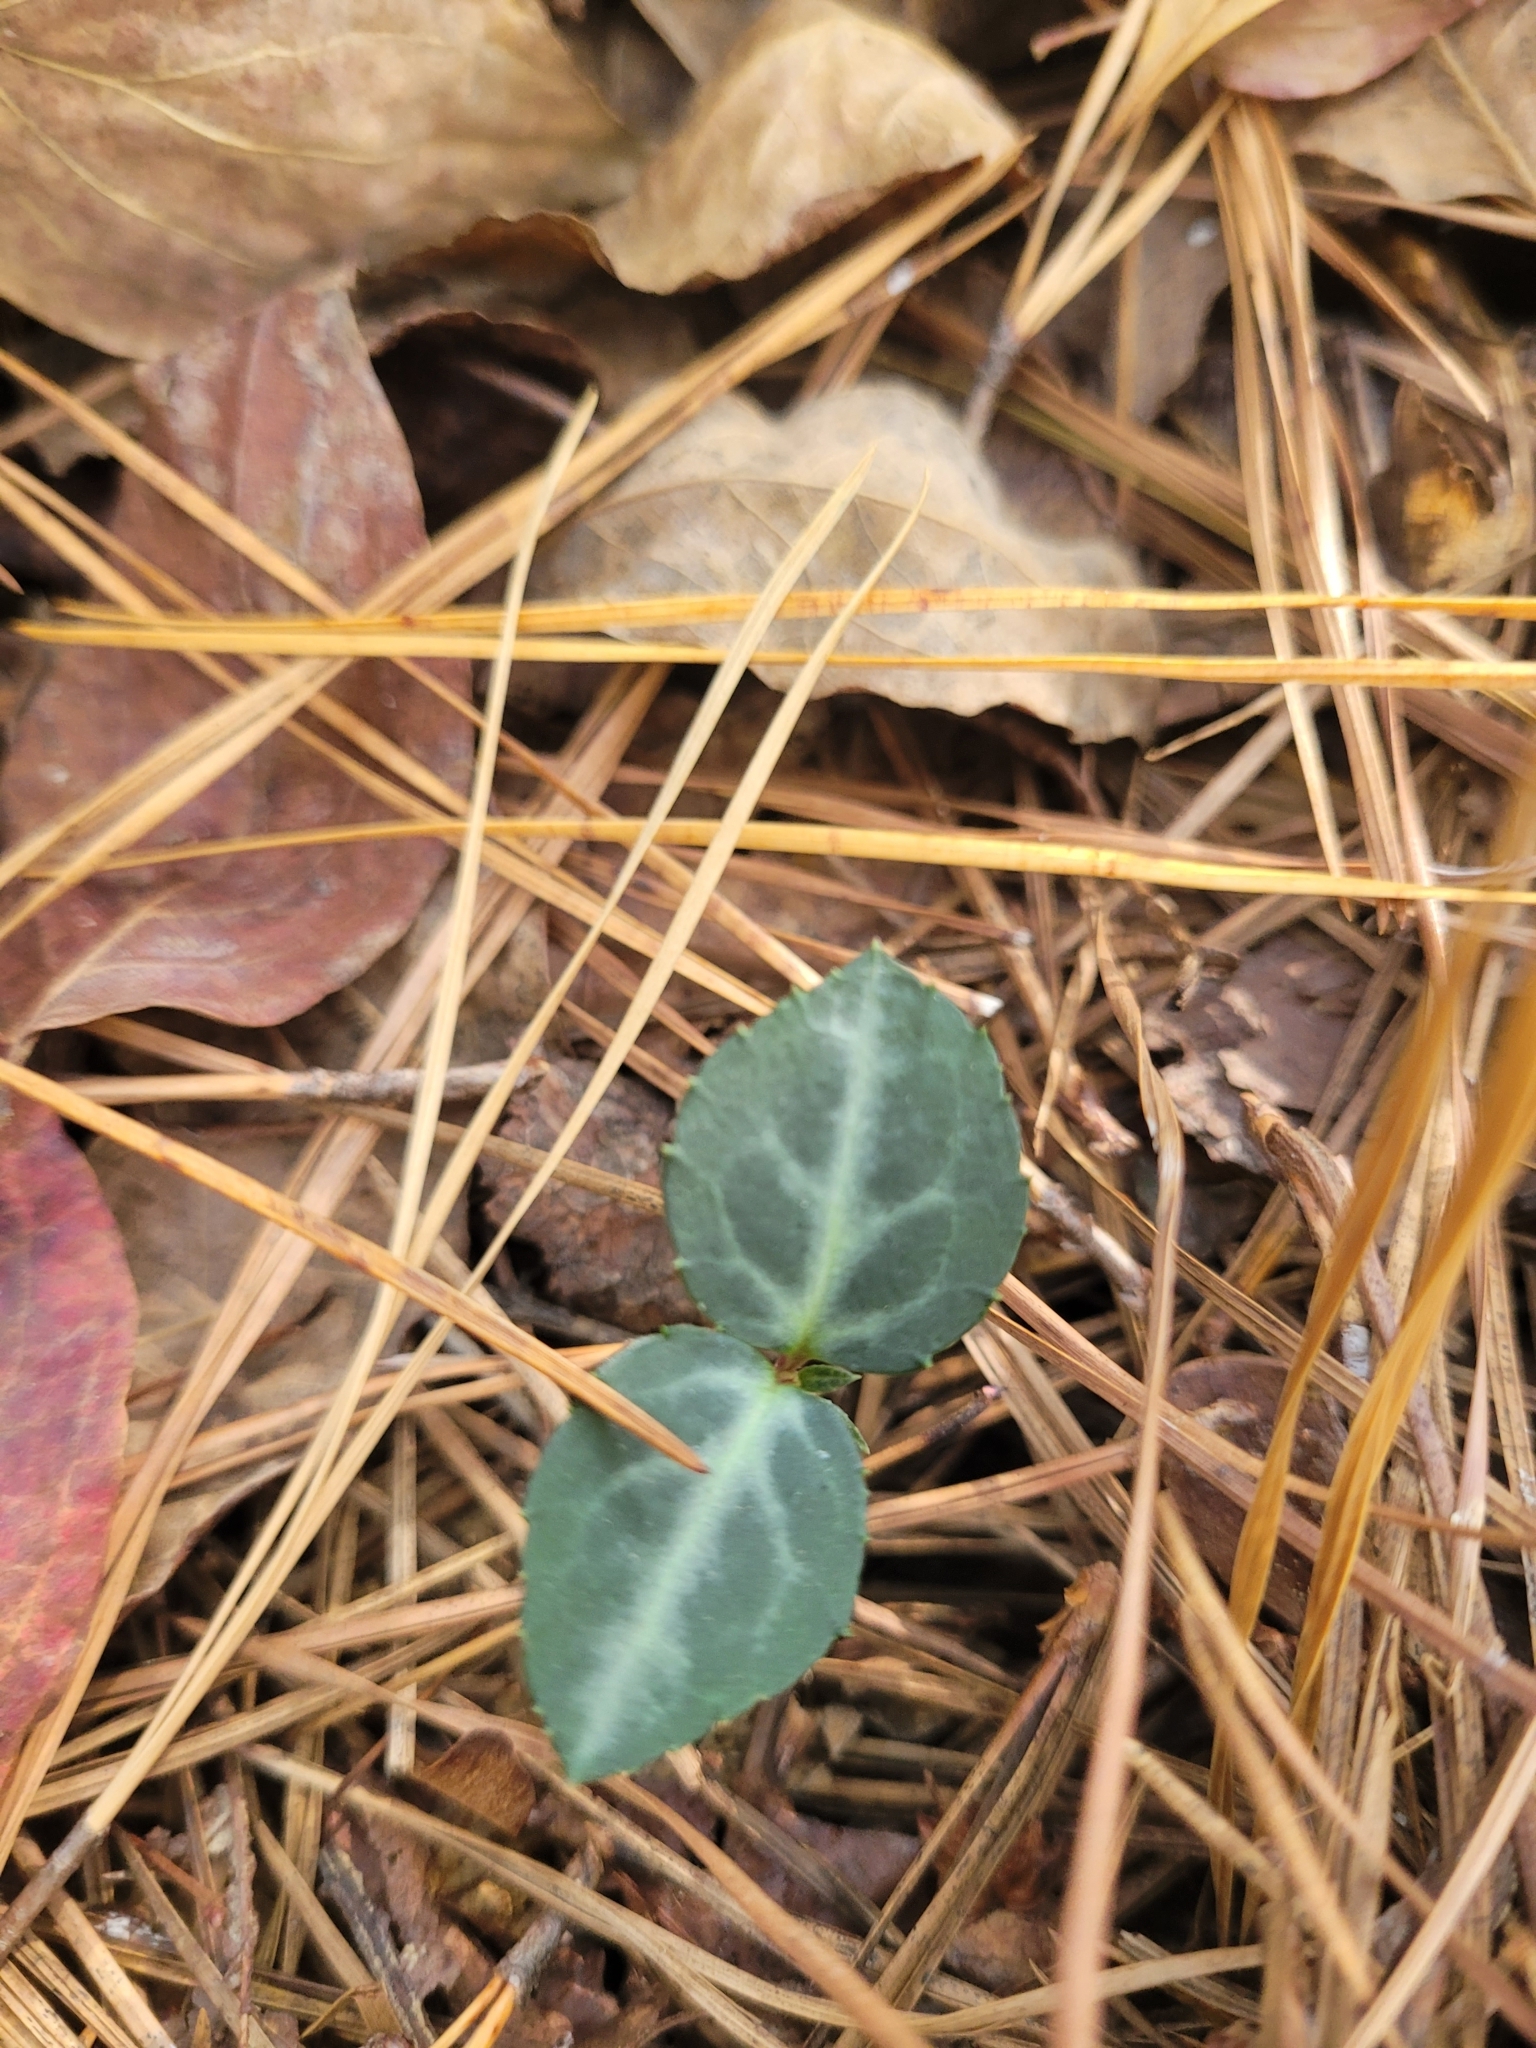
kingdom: Plantae
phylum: Tracheophyta
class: Magnoliopsida
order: Ericales
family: Ericaceae
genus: Chimaphila
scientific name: Chimaphila maculata
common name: Spotted pipsissewa
